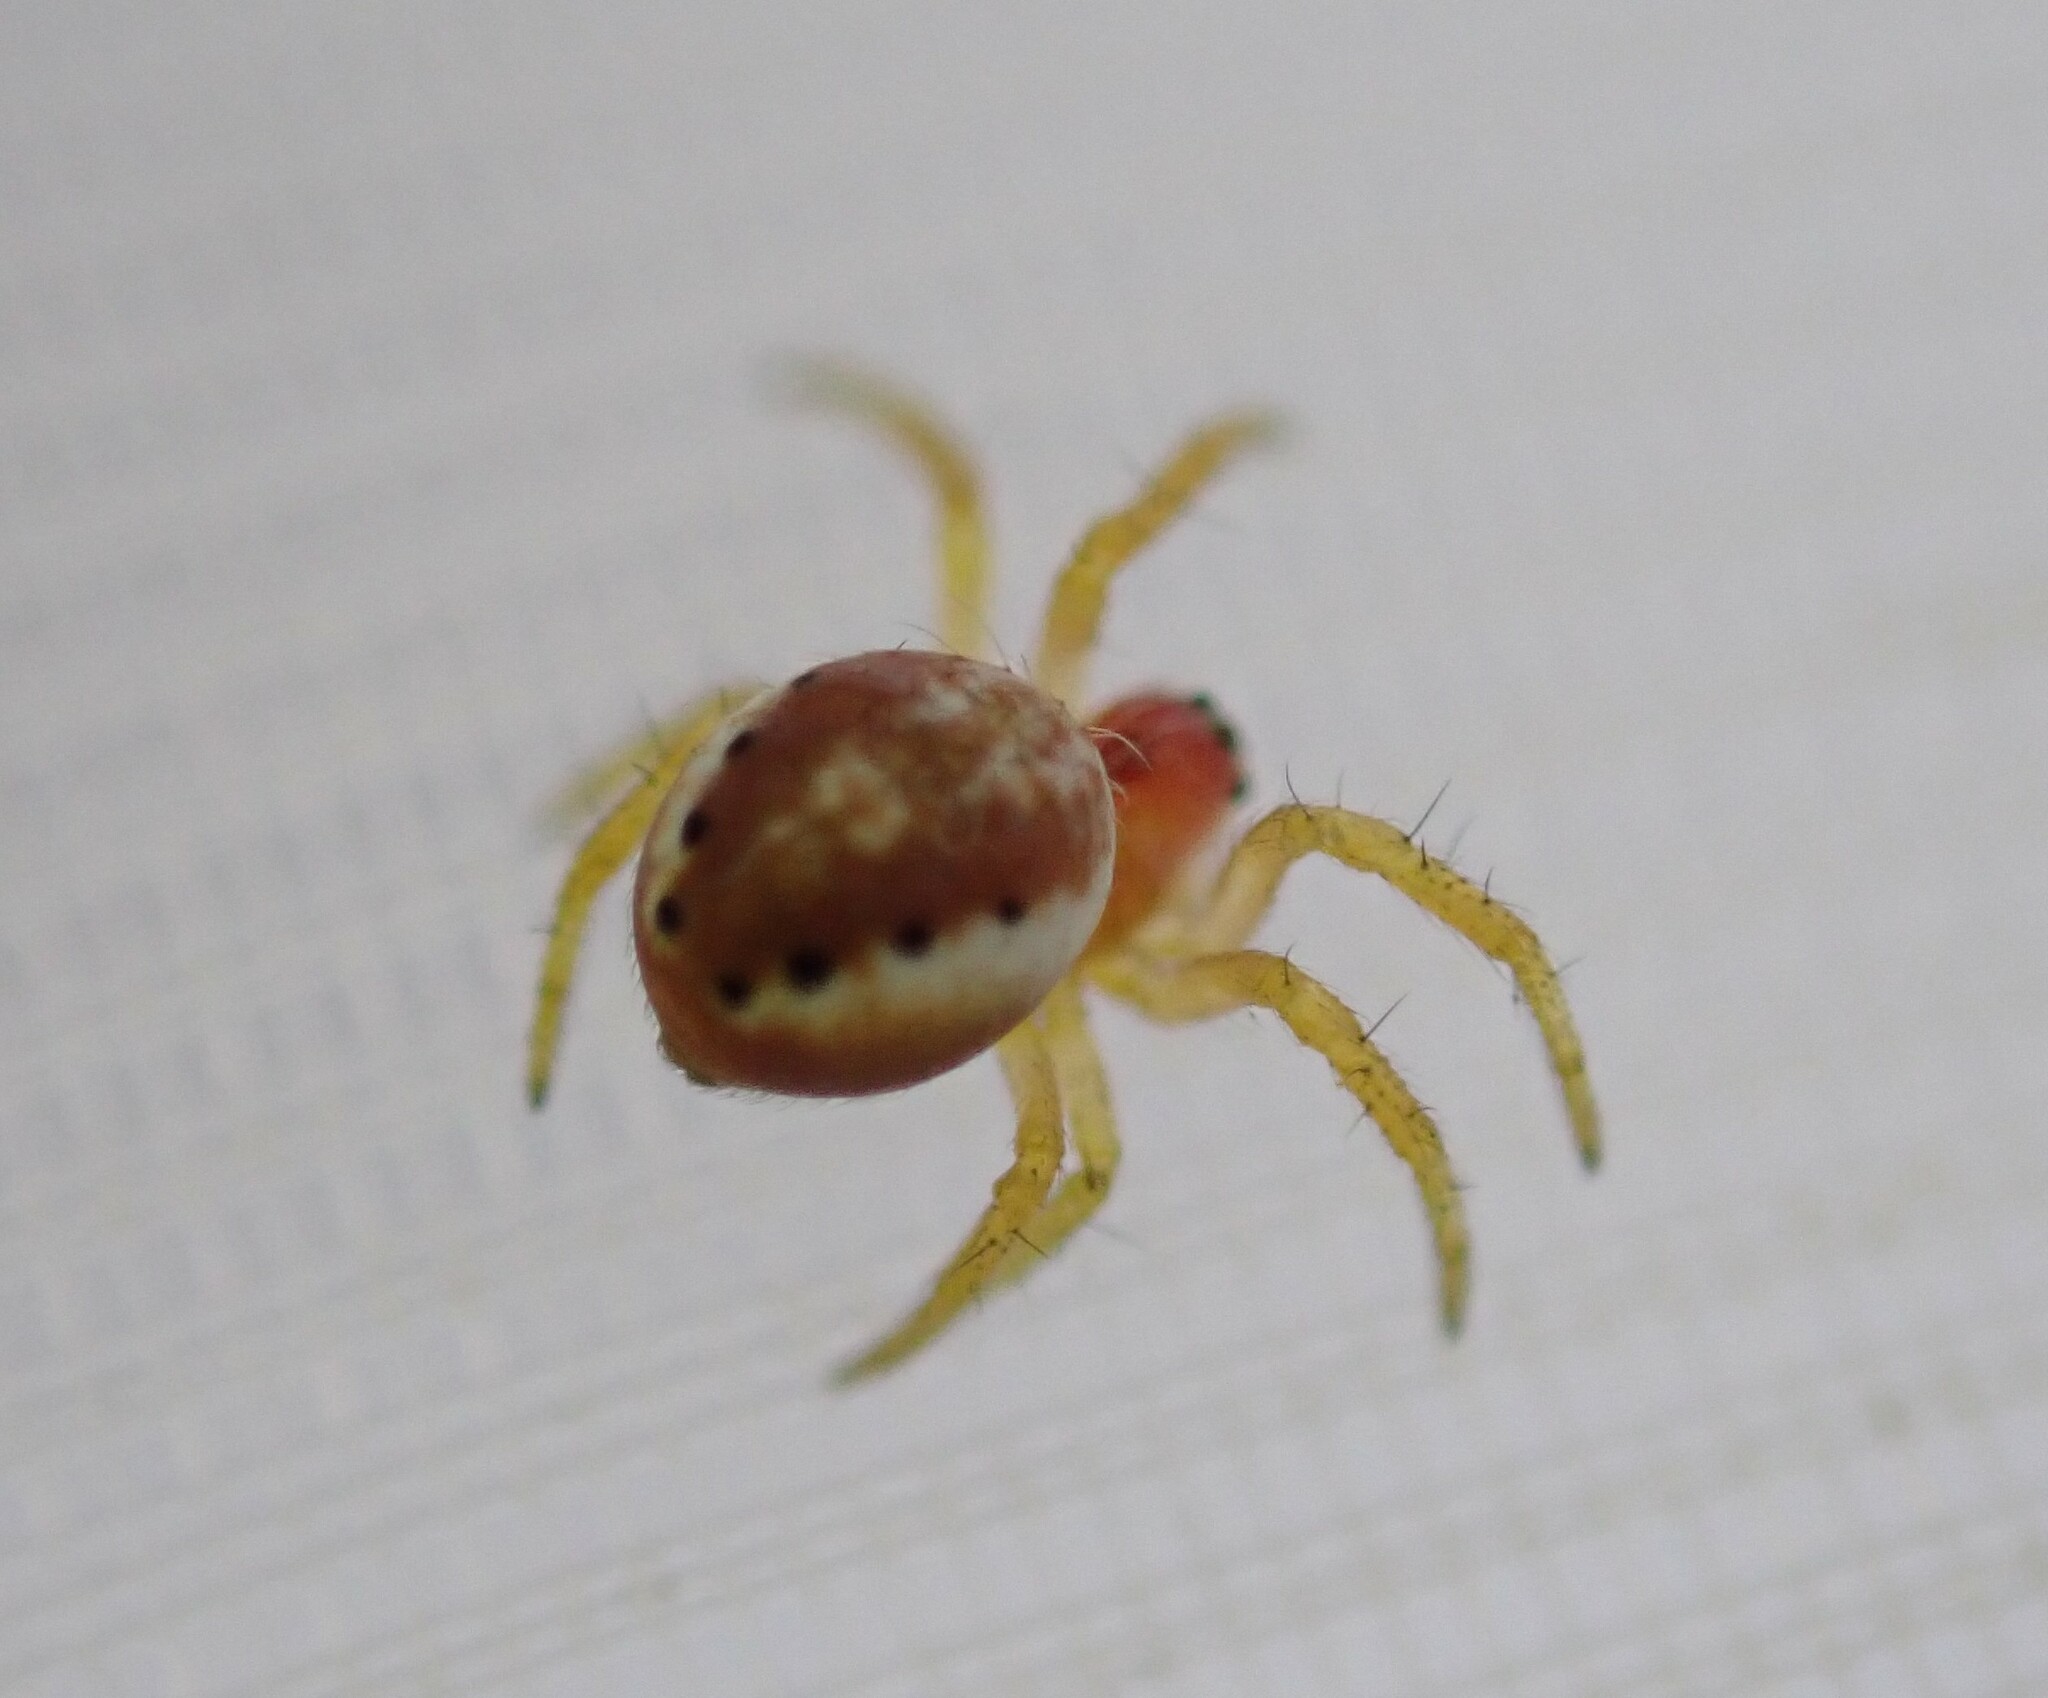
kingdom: Animalia
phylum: Arthropoda
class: Arachnida
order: Araneae
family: Araneidae
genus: Araniella
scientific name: Araniella
